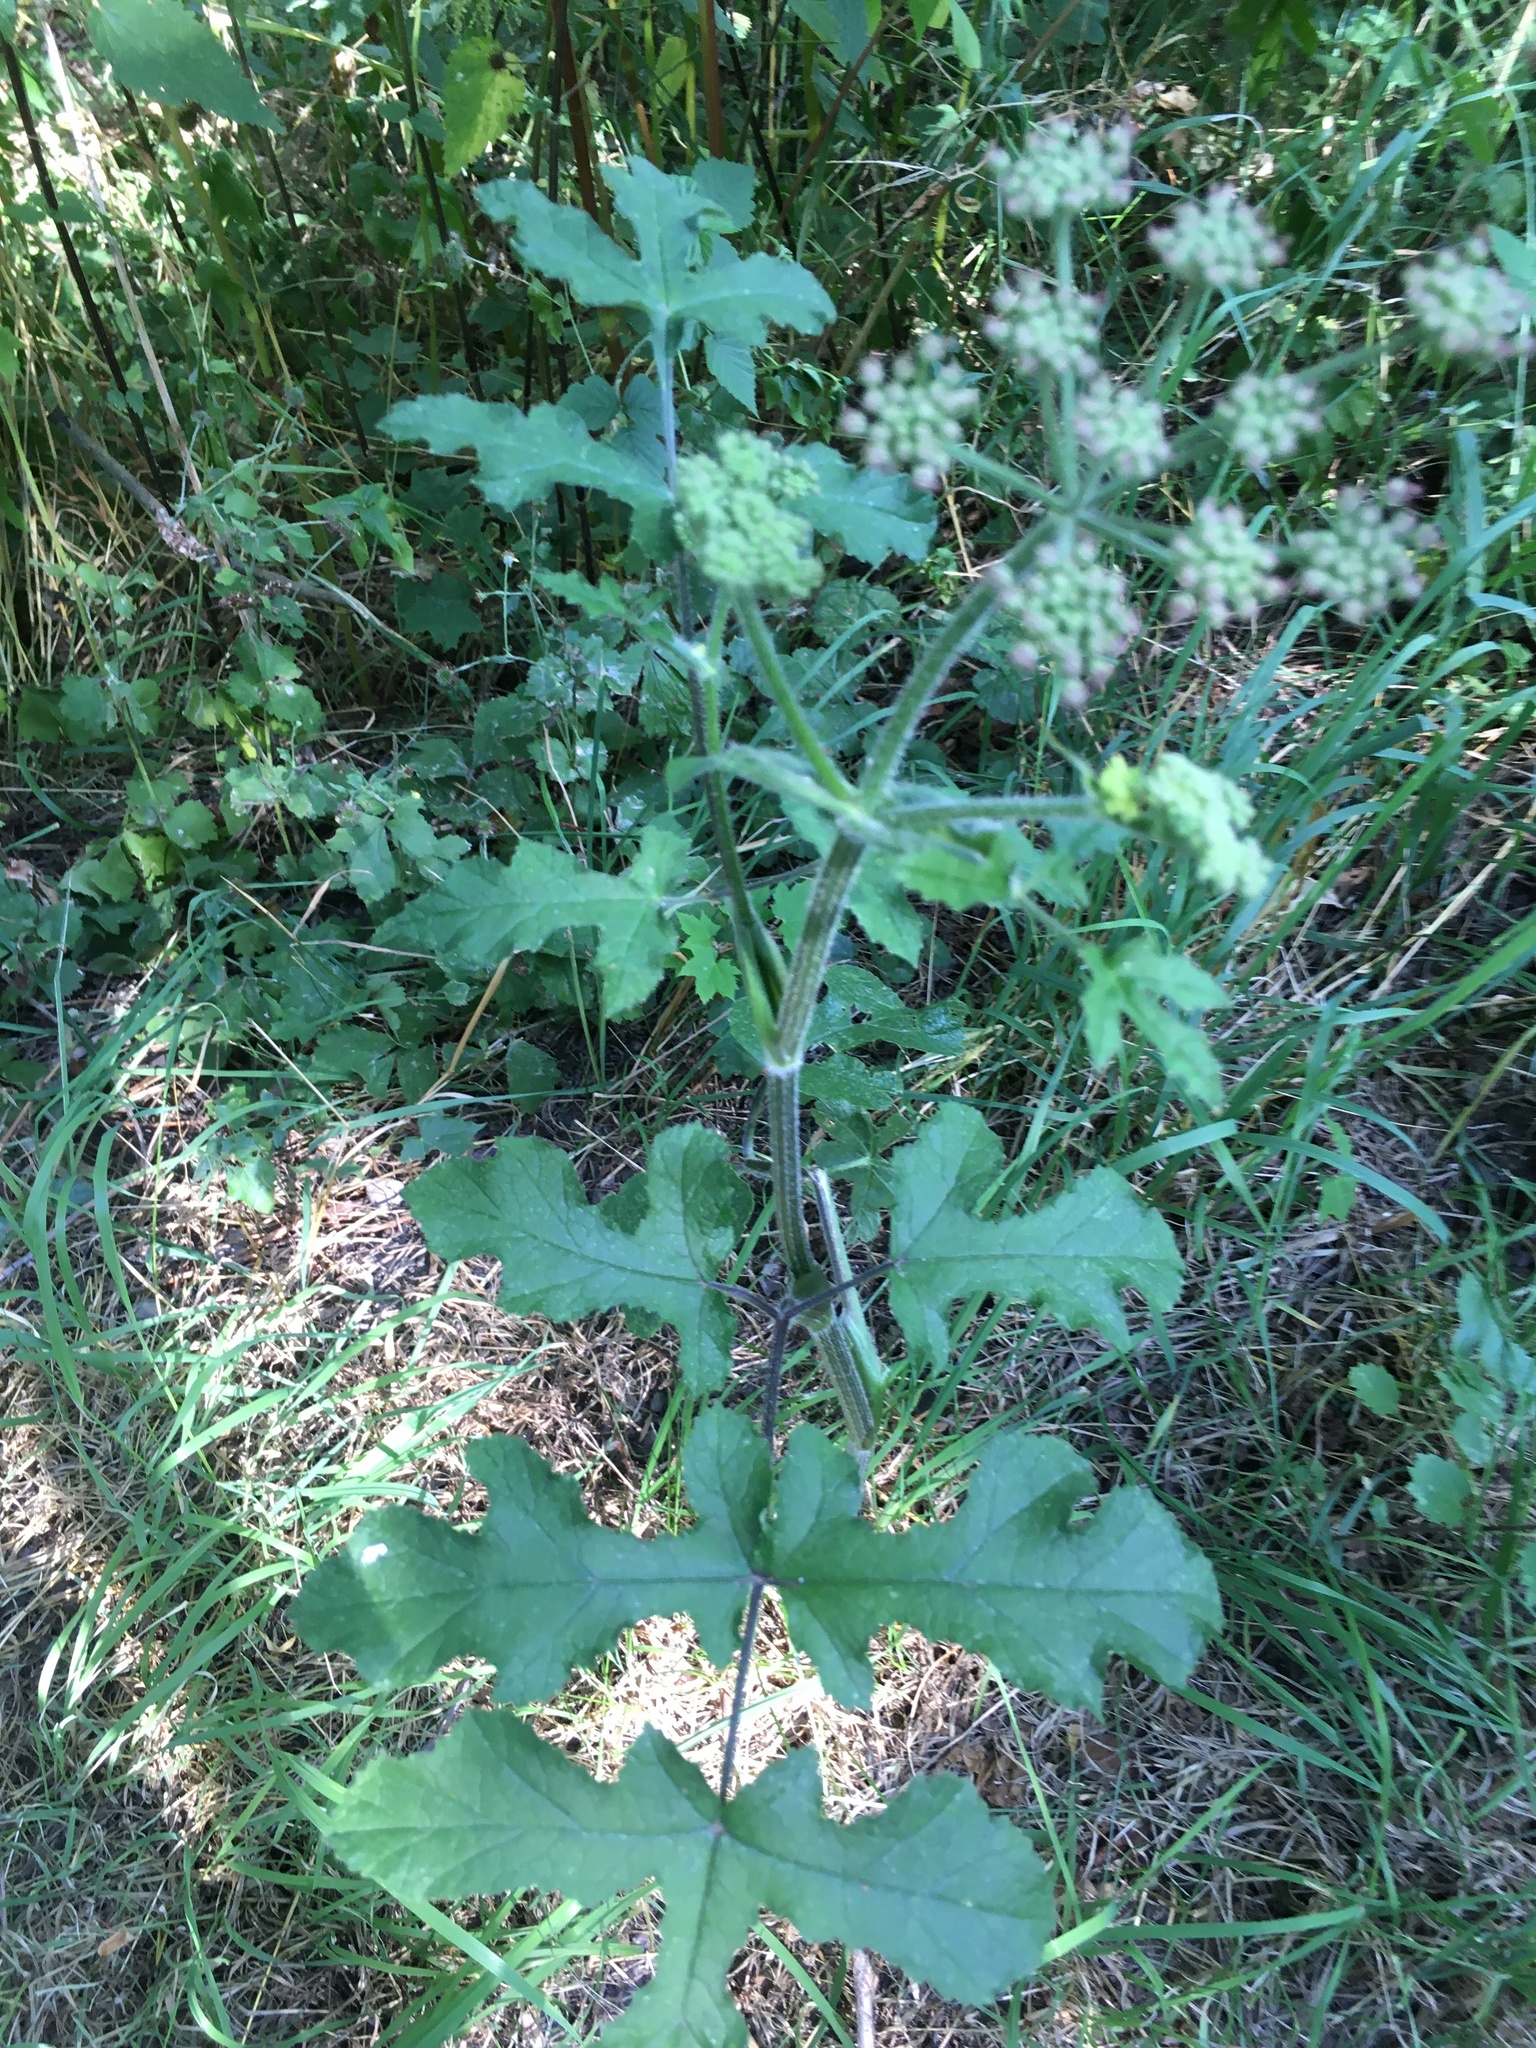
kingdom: Plantae
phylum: Tracheophyta
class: Magnoliopsida
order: Apiales
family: Apiaceae
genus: Heracleum
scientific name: Heracleum sphondylium
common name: Hogweed
